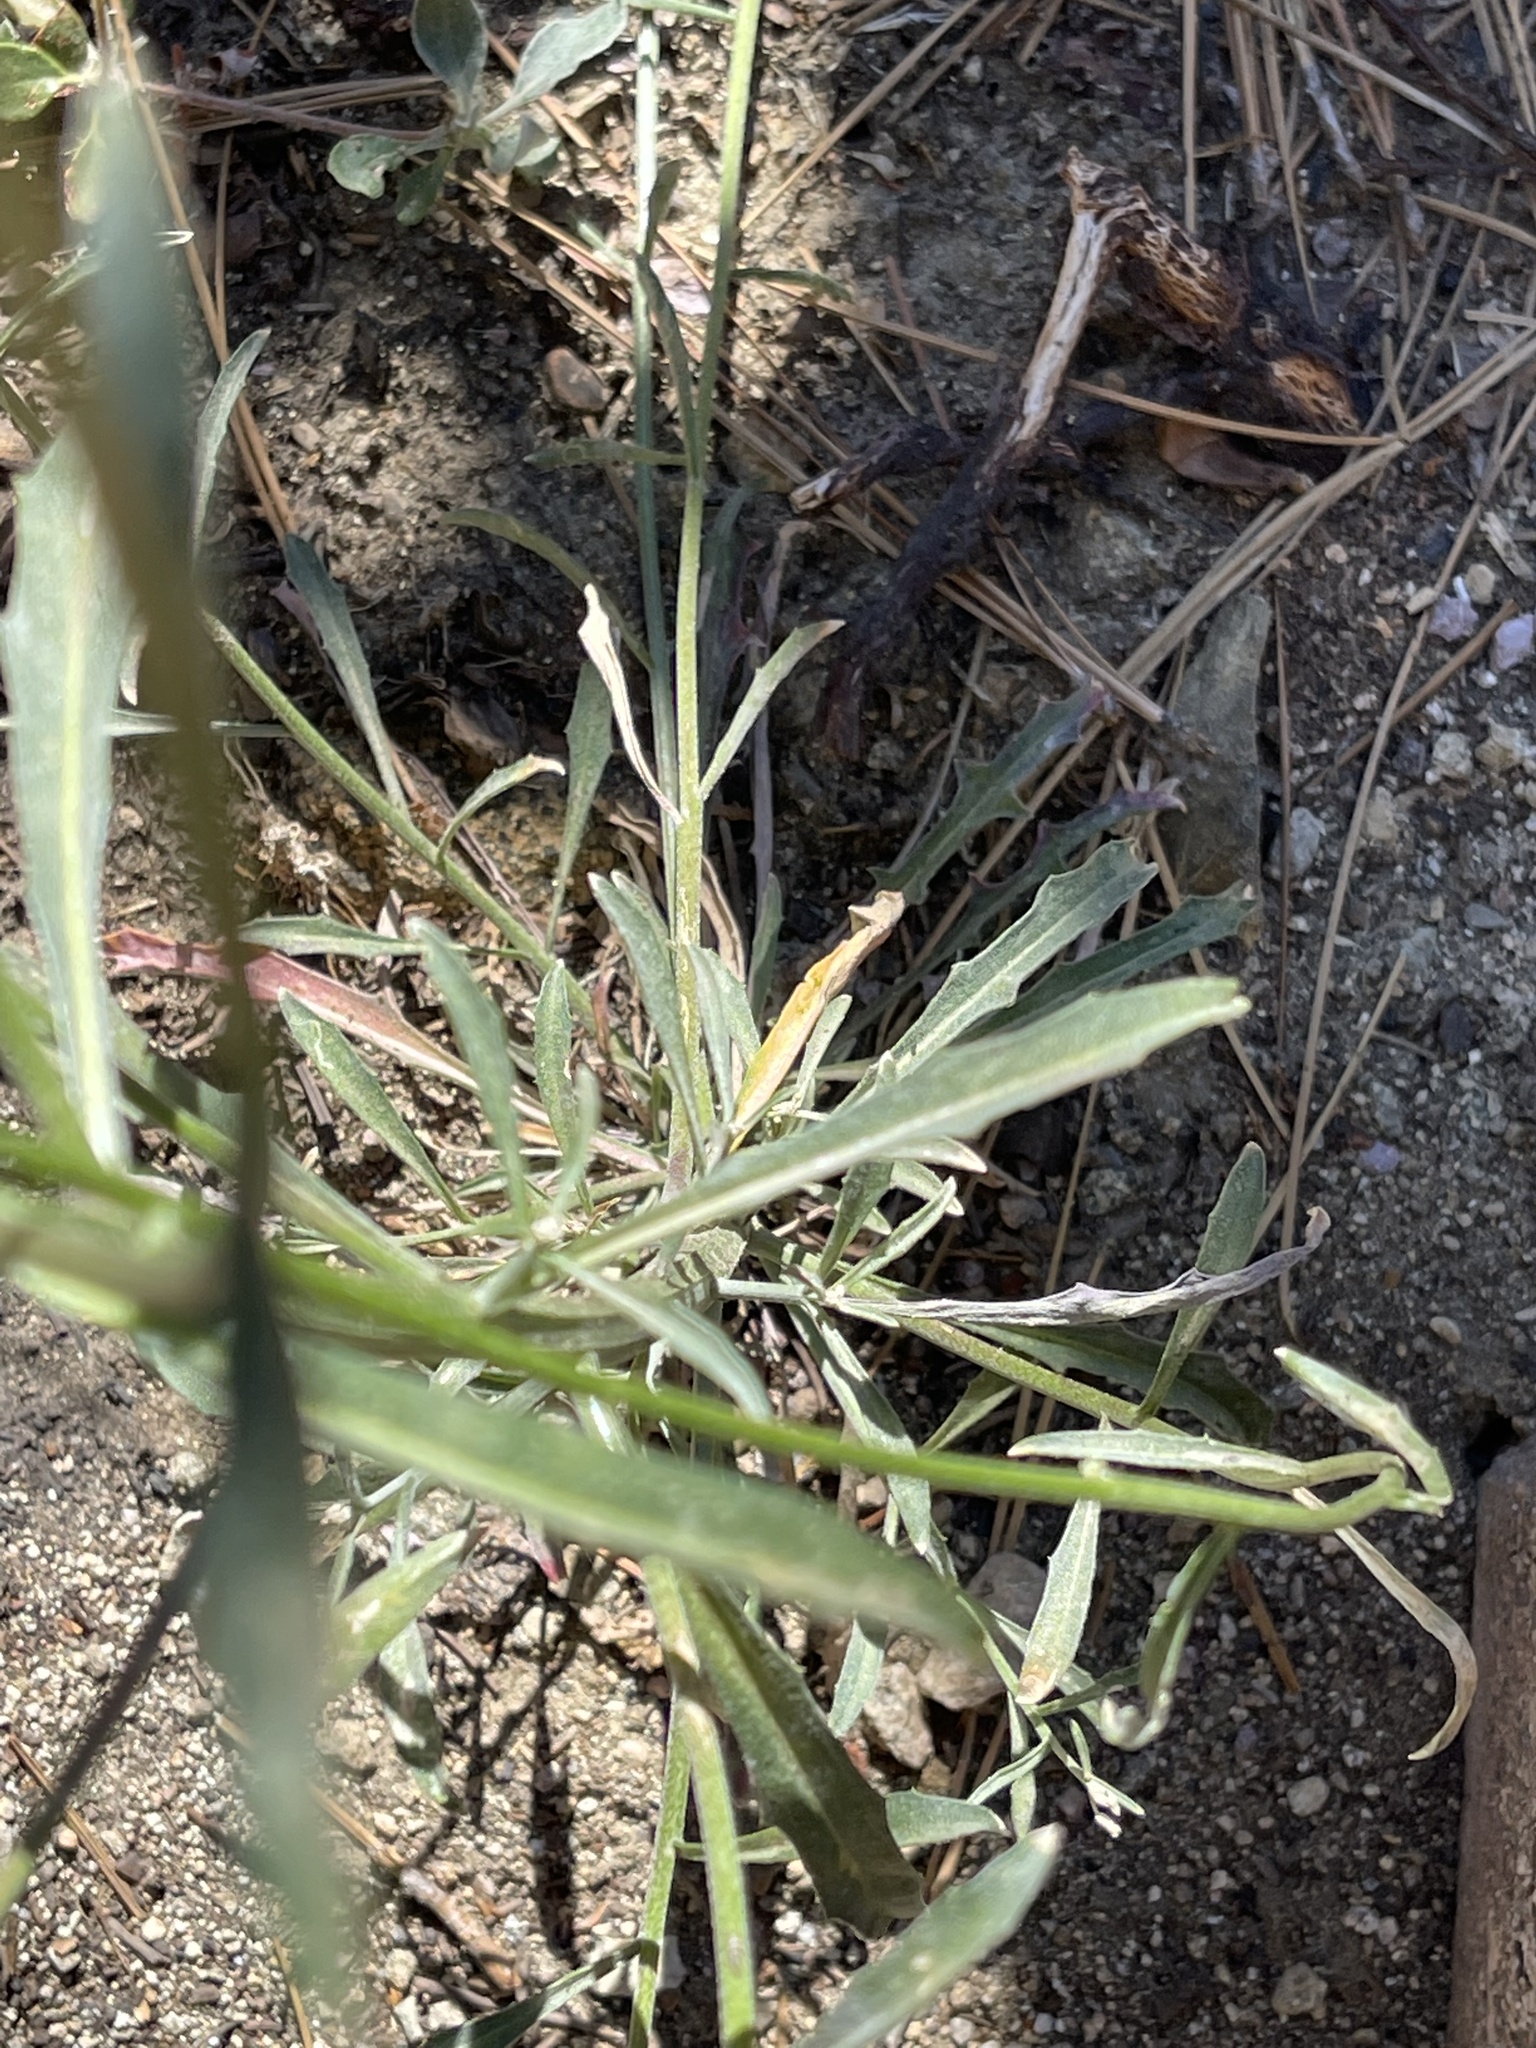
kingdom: Plantae
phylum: Tracheophyta
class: Magnoliopsida
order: Brassicales
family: Brassicaceae
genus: Erysimum
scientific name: Erysimum capitatum
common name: Western wallflower
